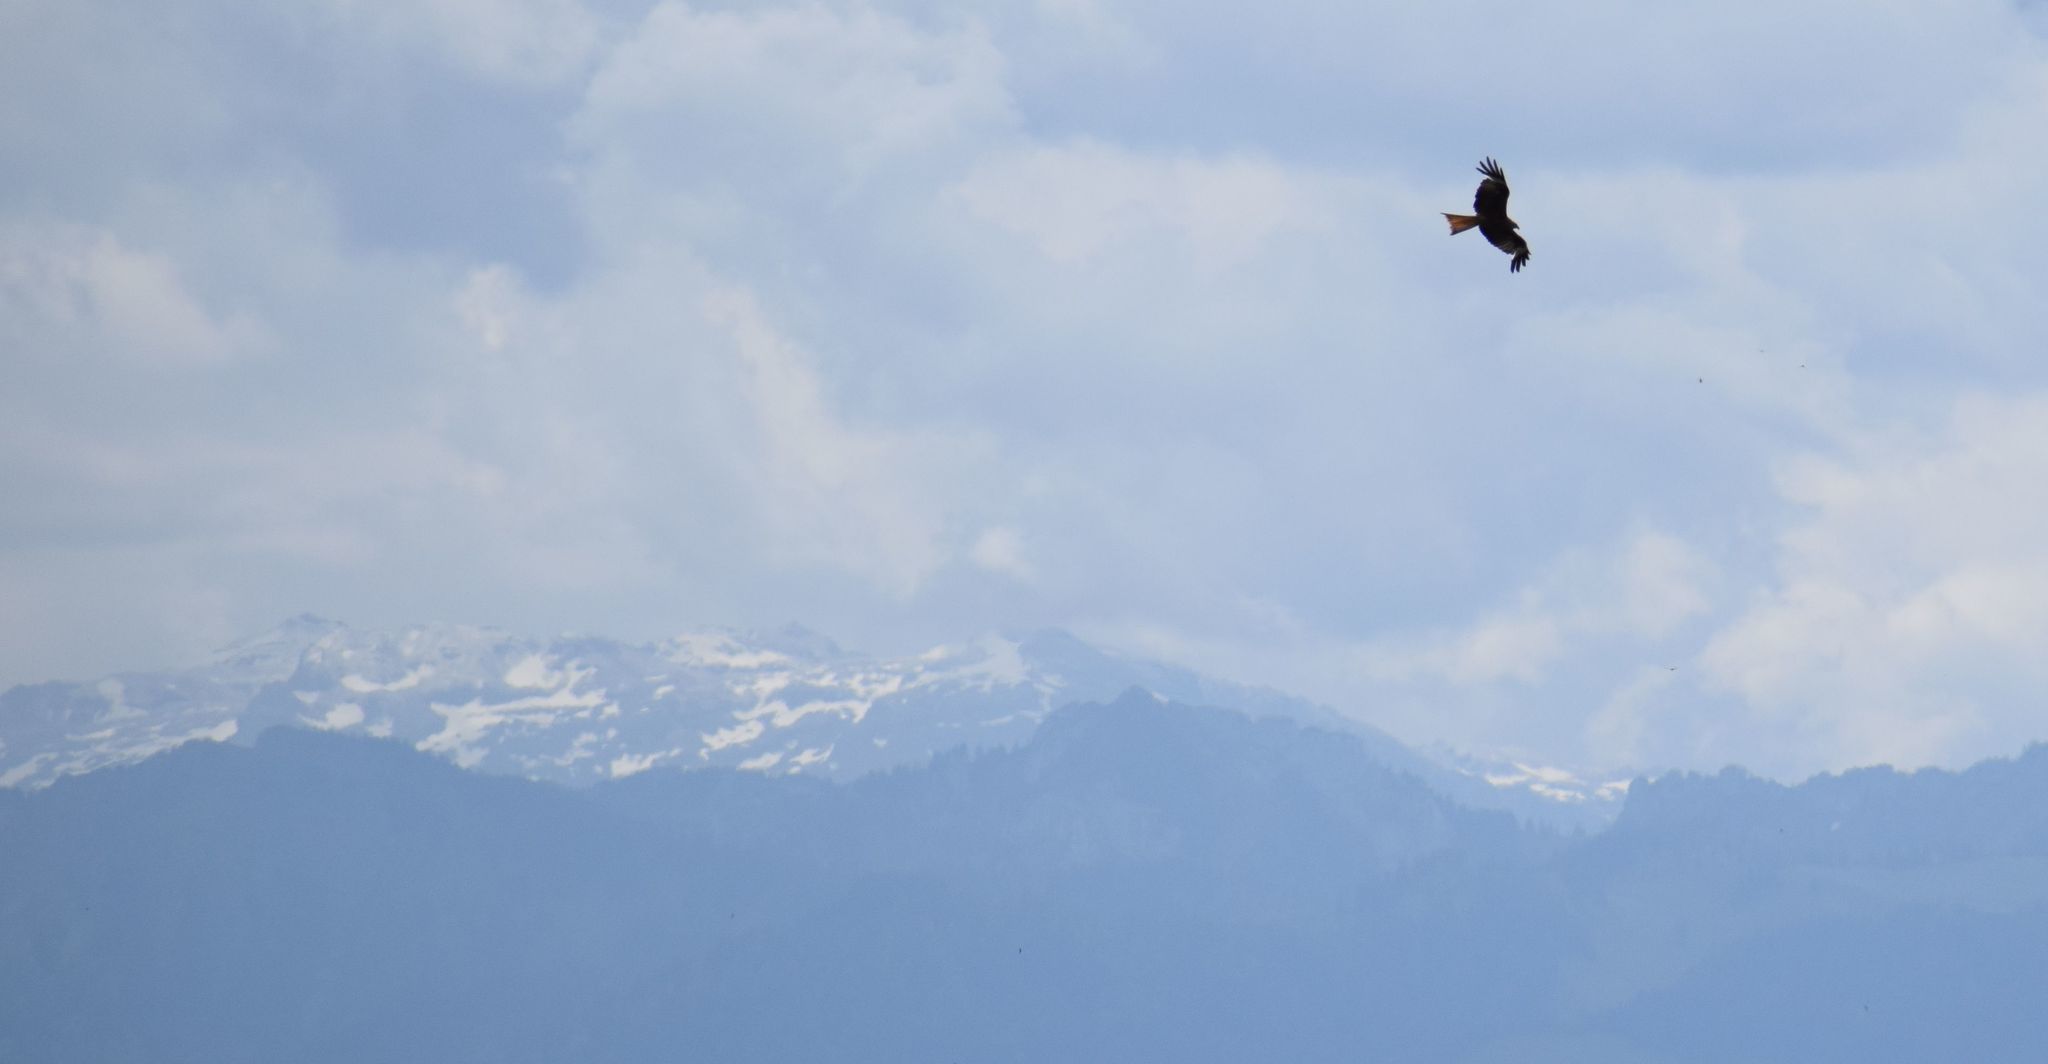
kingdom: Animalia
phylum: Chordata
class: Aves
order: Accipitriformes
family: Accipitridae
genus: Milvus
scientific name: Milvus milvus
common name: Red kite
